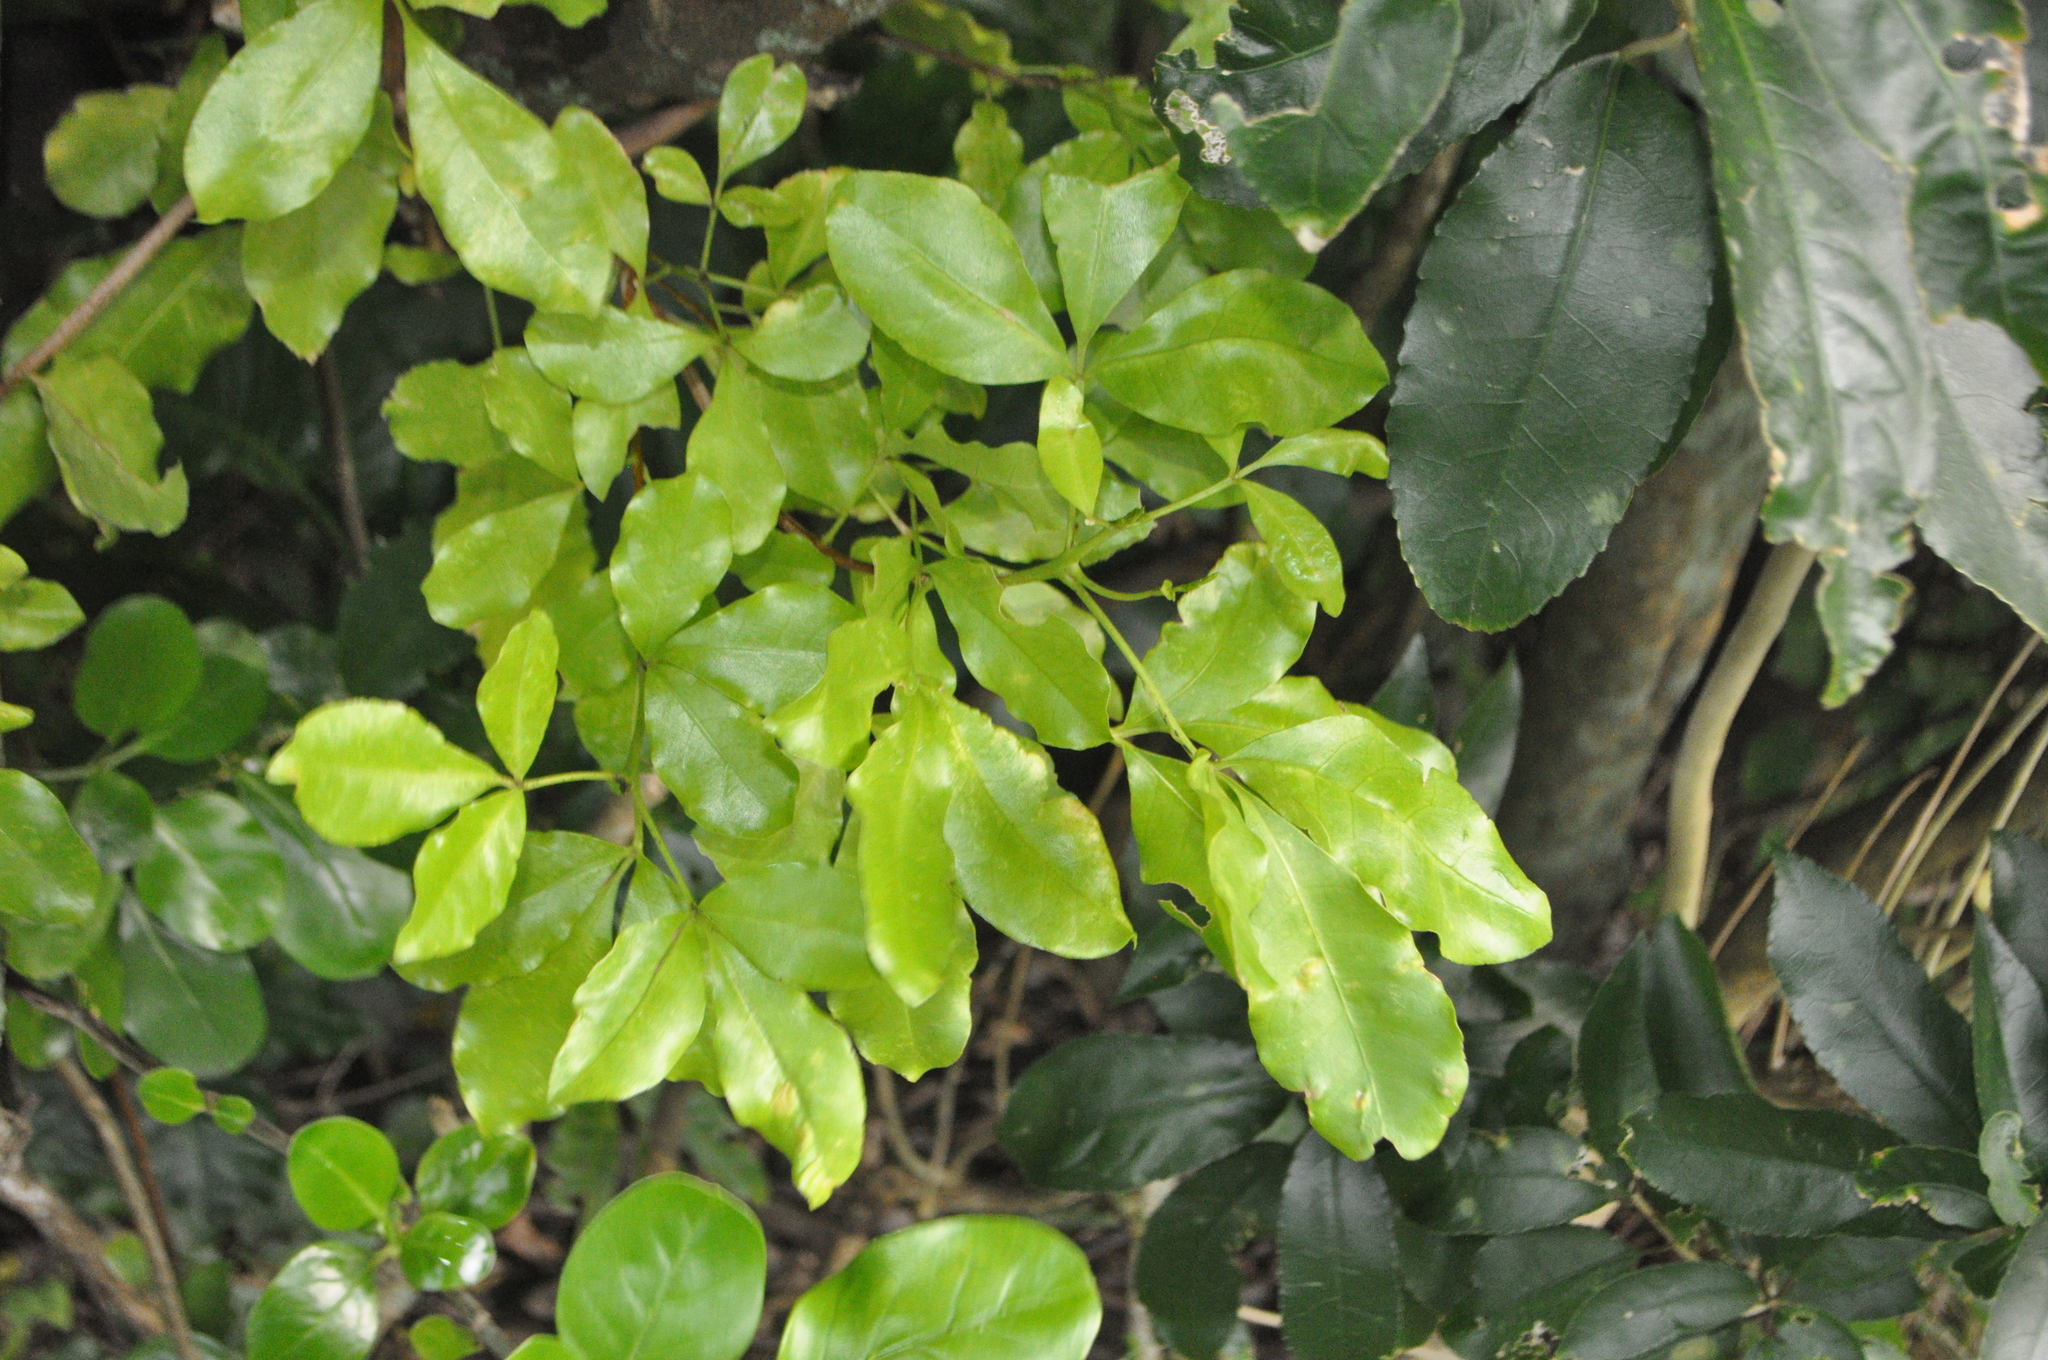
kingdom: Plantae
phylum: Tracheophyta
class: Magnoliopsida
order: Sapindales
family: Rutaceae
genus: Melicope
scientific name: Melicope ternata
